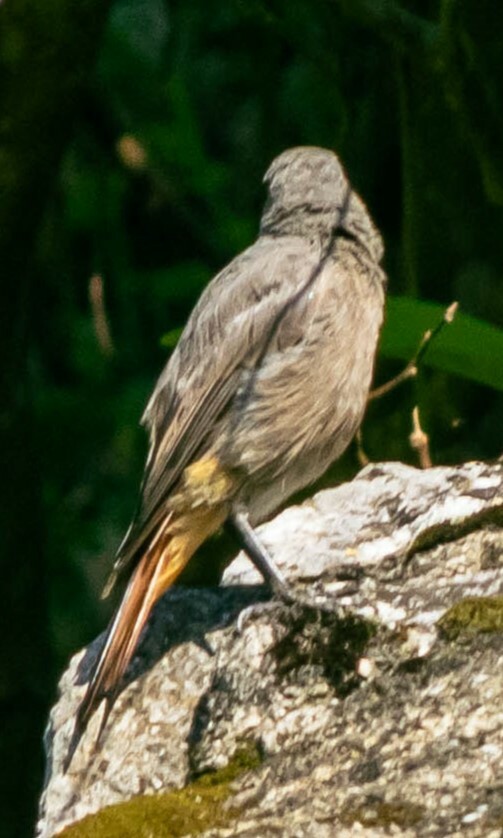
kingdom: Animalia
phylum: Chordata
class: Aves
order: Passeriformes
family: Muscicapidae
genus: Phoenicurus
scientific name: Phoenicurus ochruros
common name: Black redstart
